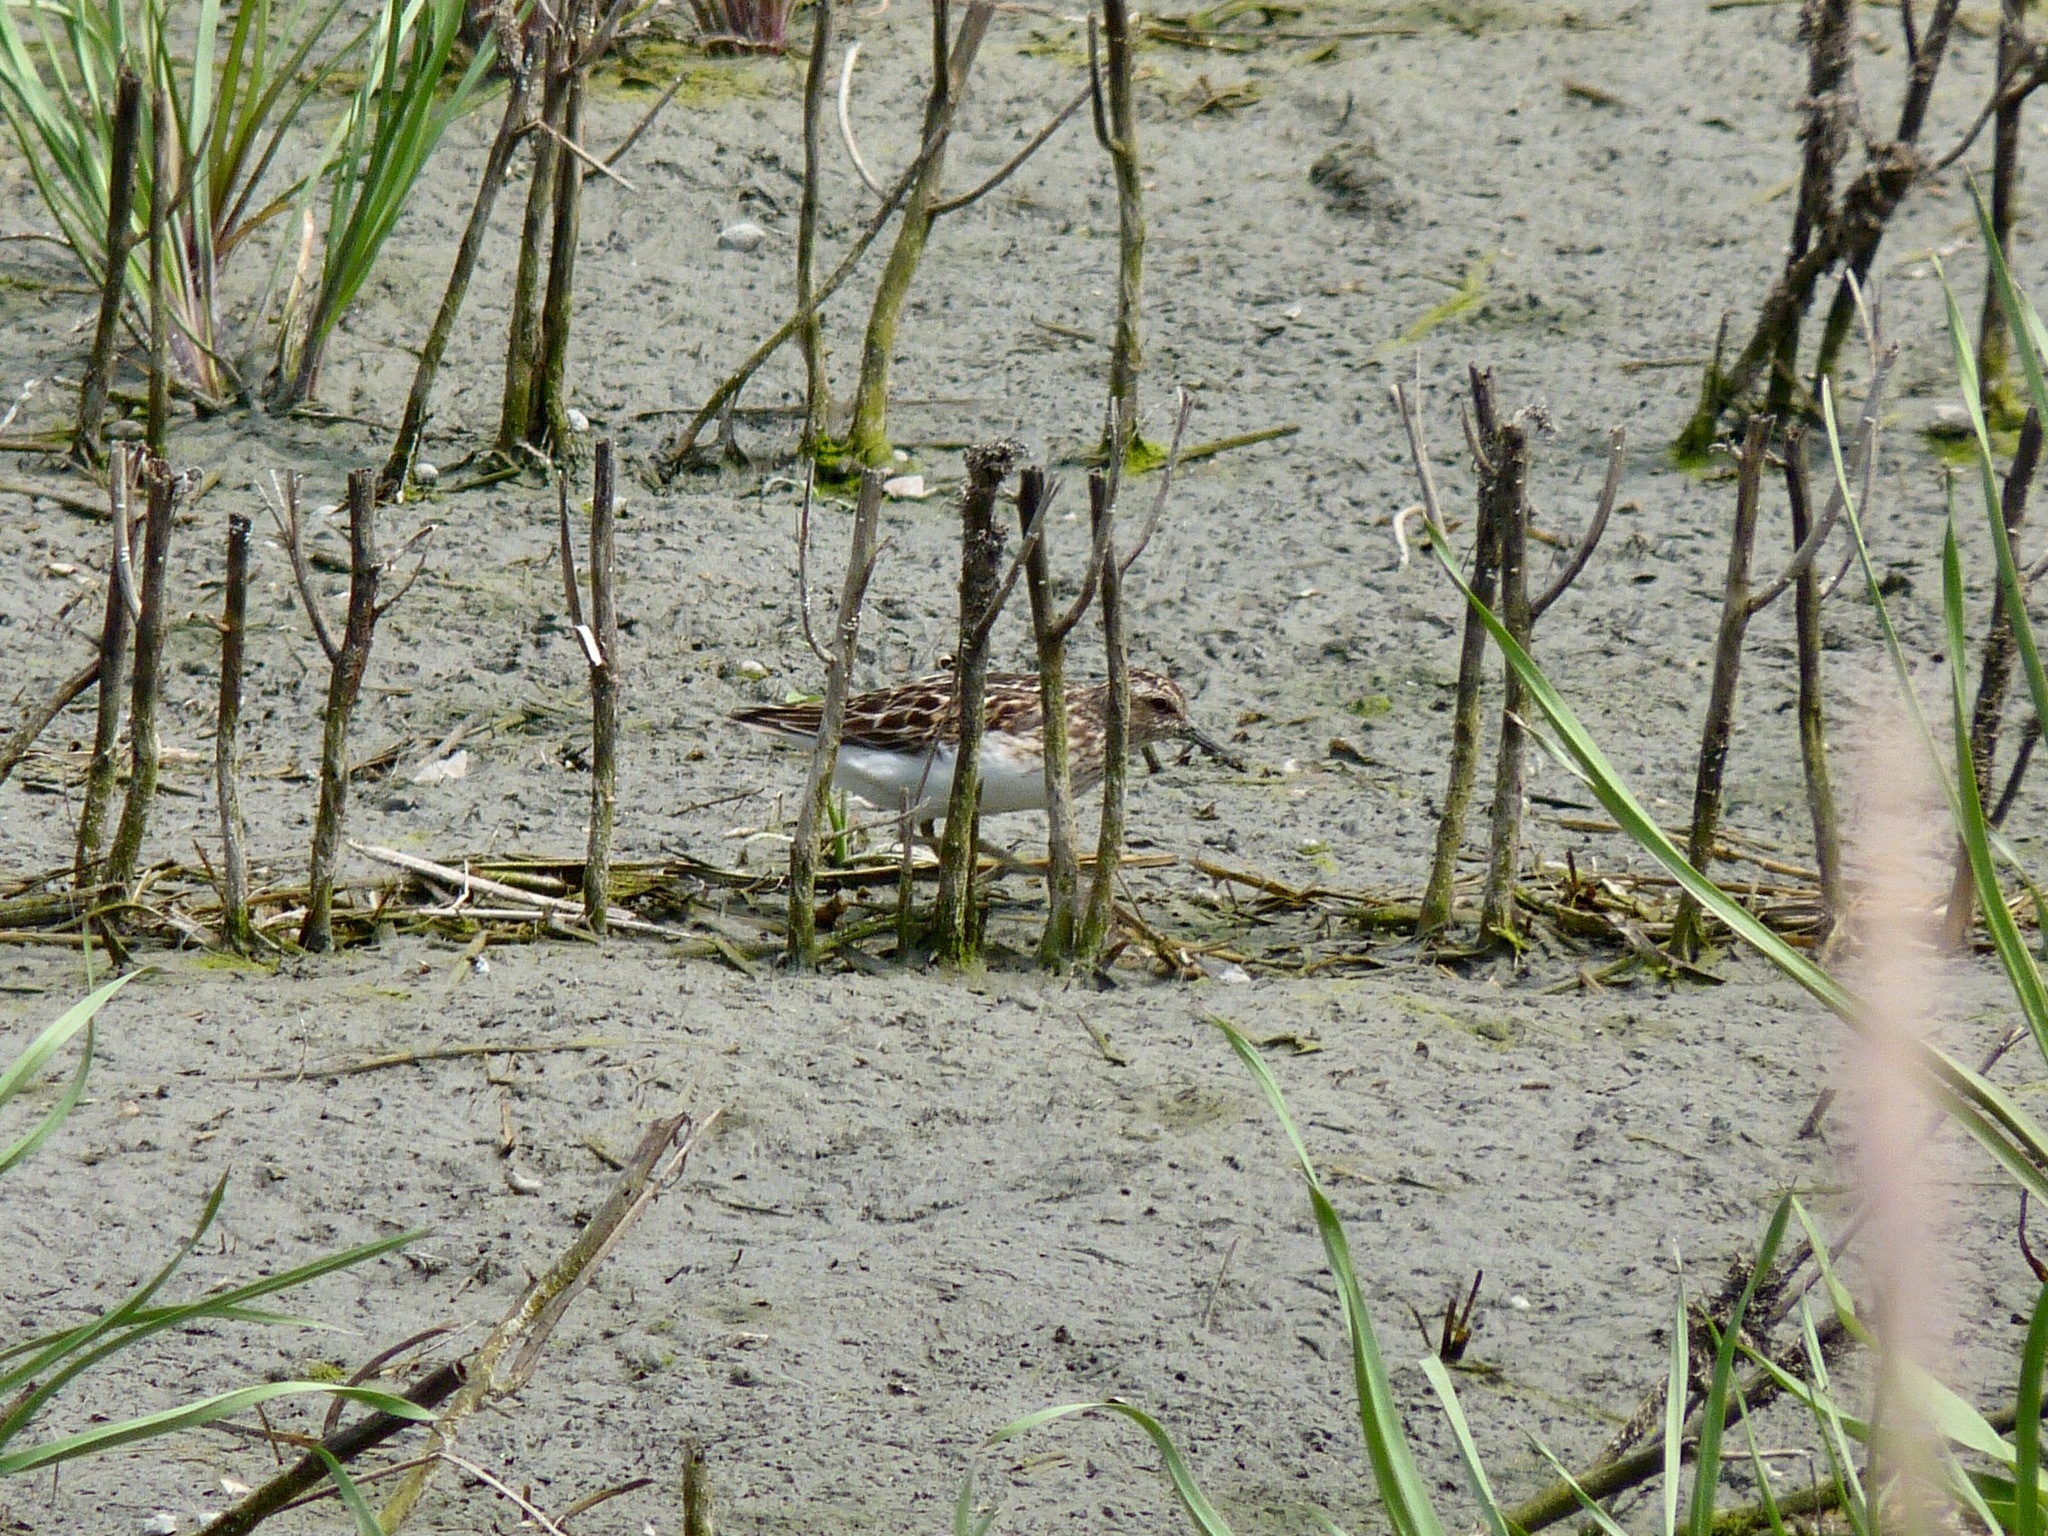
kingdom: Animalia
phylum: Chordata
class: Aves
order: Charadriiformes
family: Scolopacidae
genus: Calidris
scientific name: Calidris minutilla
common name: Least sandpiper
